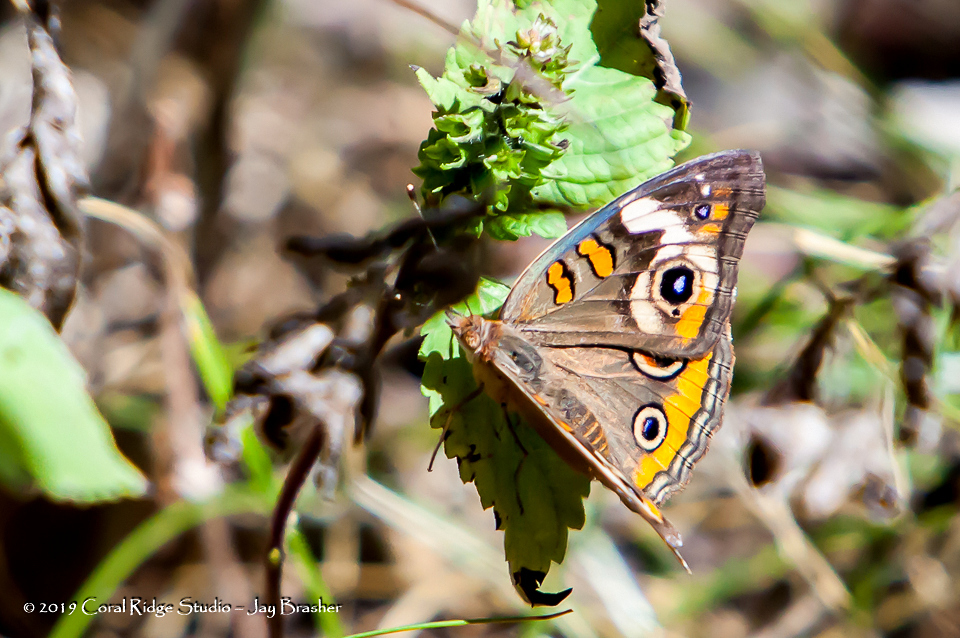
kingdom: Animalia
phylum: Arthropoda
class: Insecta
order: Lepidoptera
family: Nymphalidae
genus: Junonia
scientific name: Junonia coenia
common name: Common buckeye
